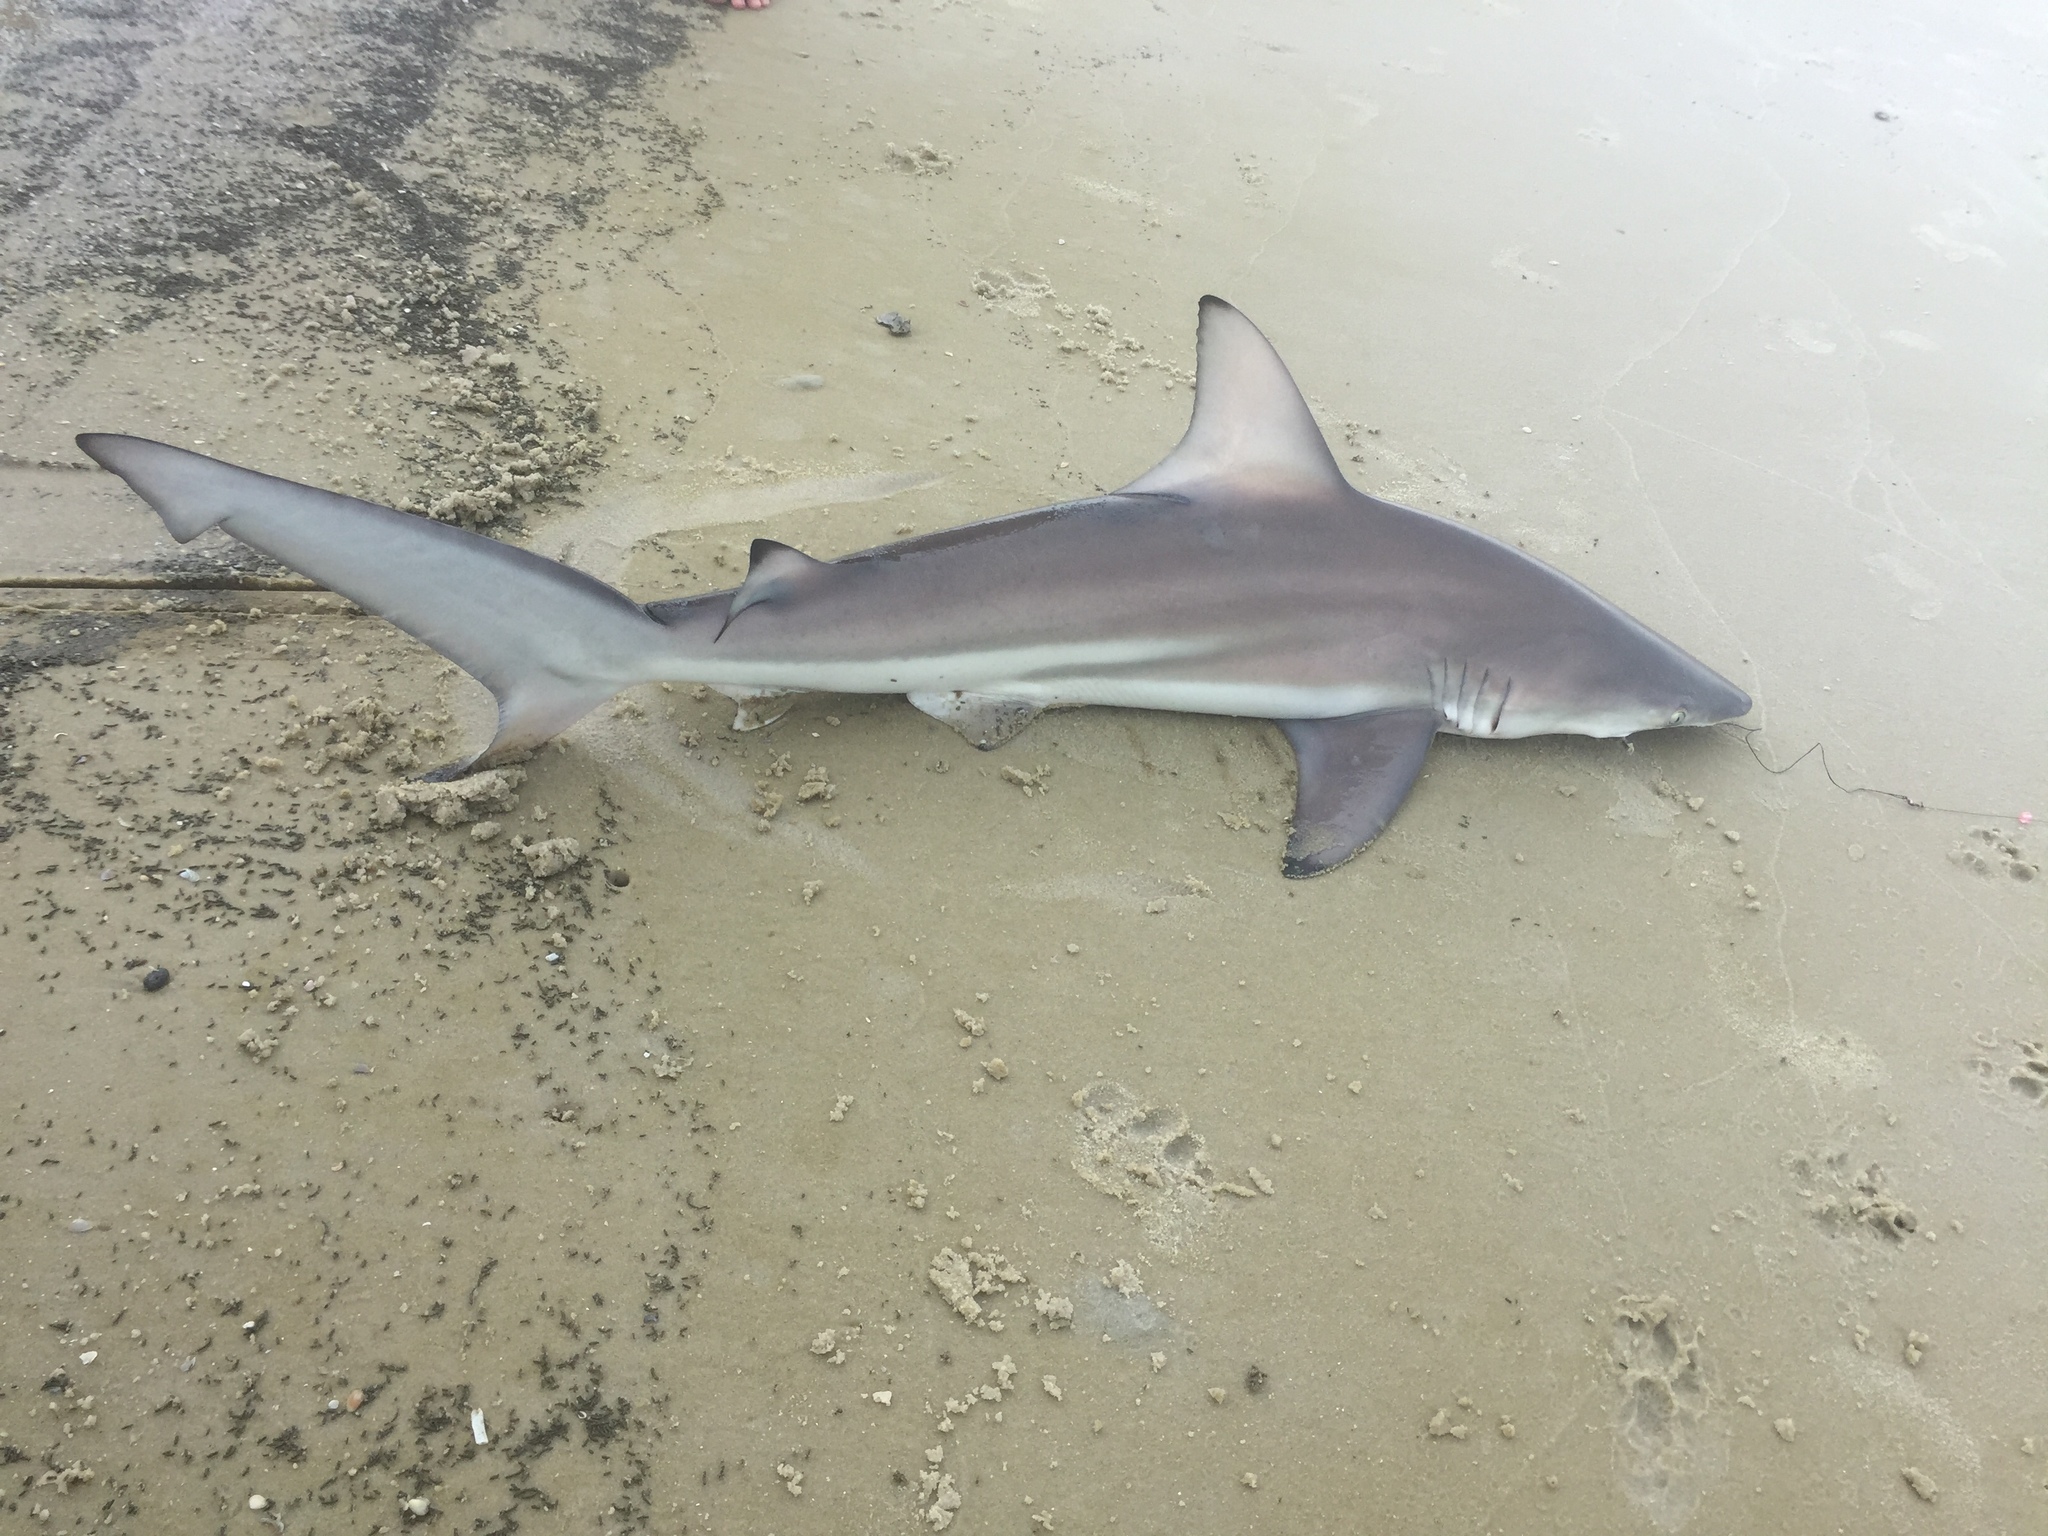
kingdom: Animalia
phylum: Chordata
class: Elasmobranchii
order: Carcharhiniformes
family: Carcharhinidae
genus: Carcharhinus
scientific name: Carcharhinus limbatus
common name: Blacktip shark
